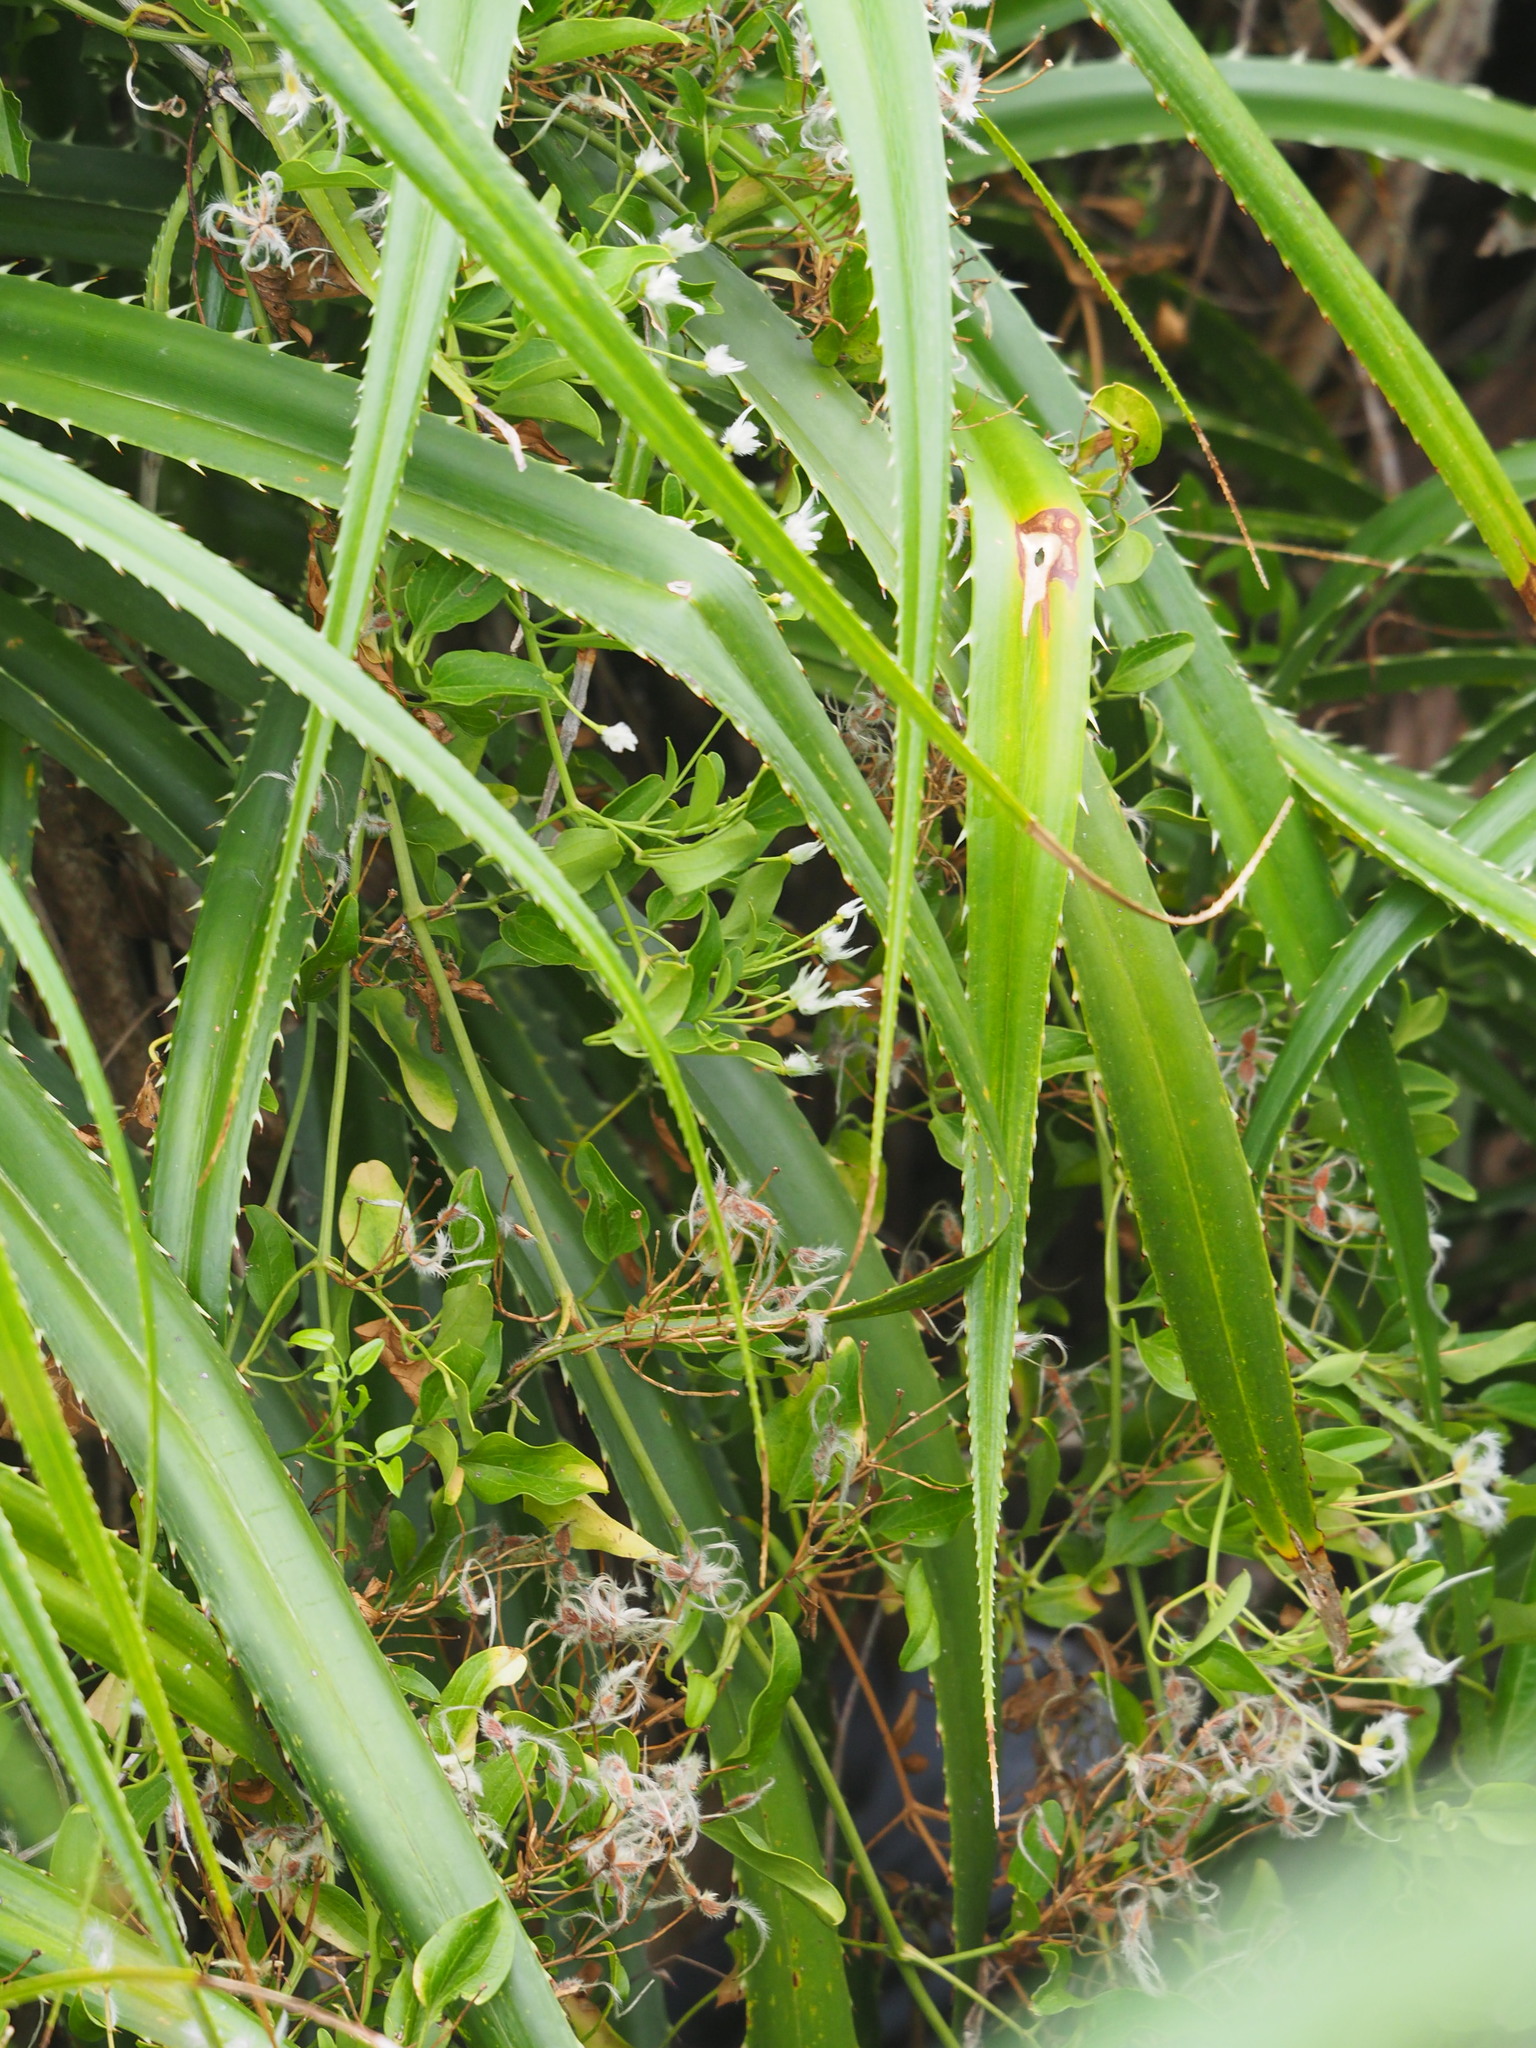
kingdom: Plantae
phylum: Tracheophyta
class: Magnoliopsida
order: Ranunculales
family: Ranunculaceae
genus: Clematis
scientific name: Clematis terniflora
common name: Sweet autumn clematis
